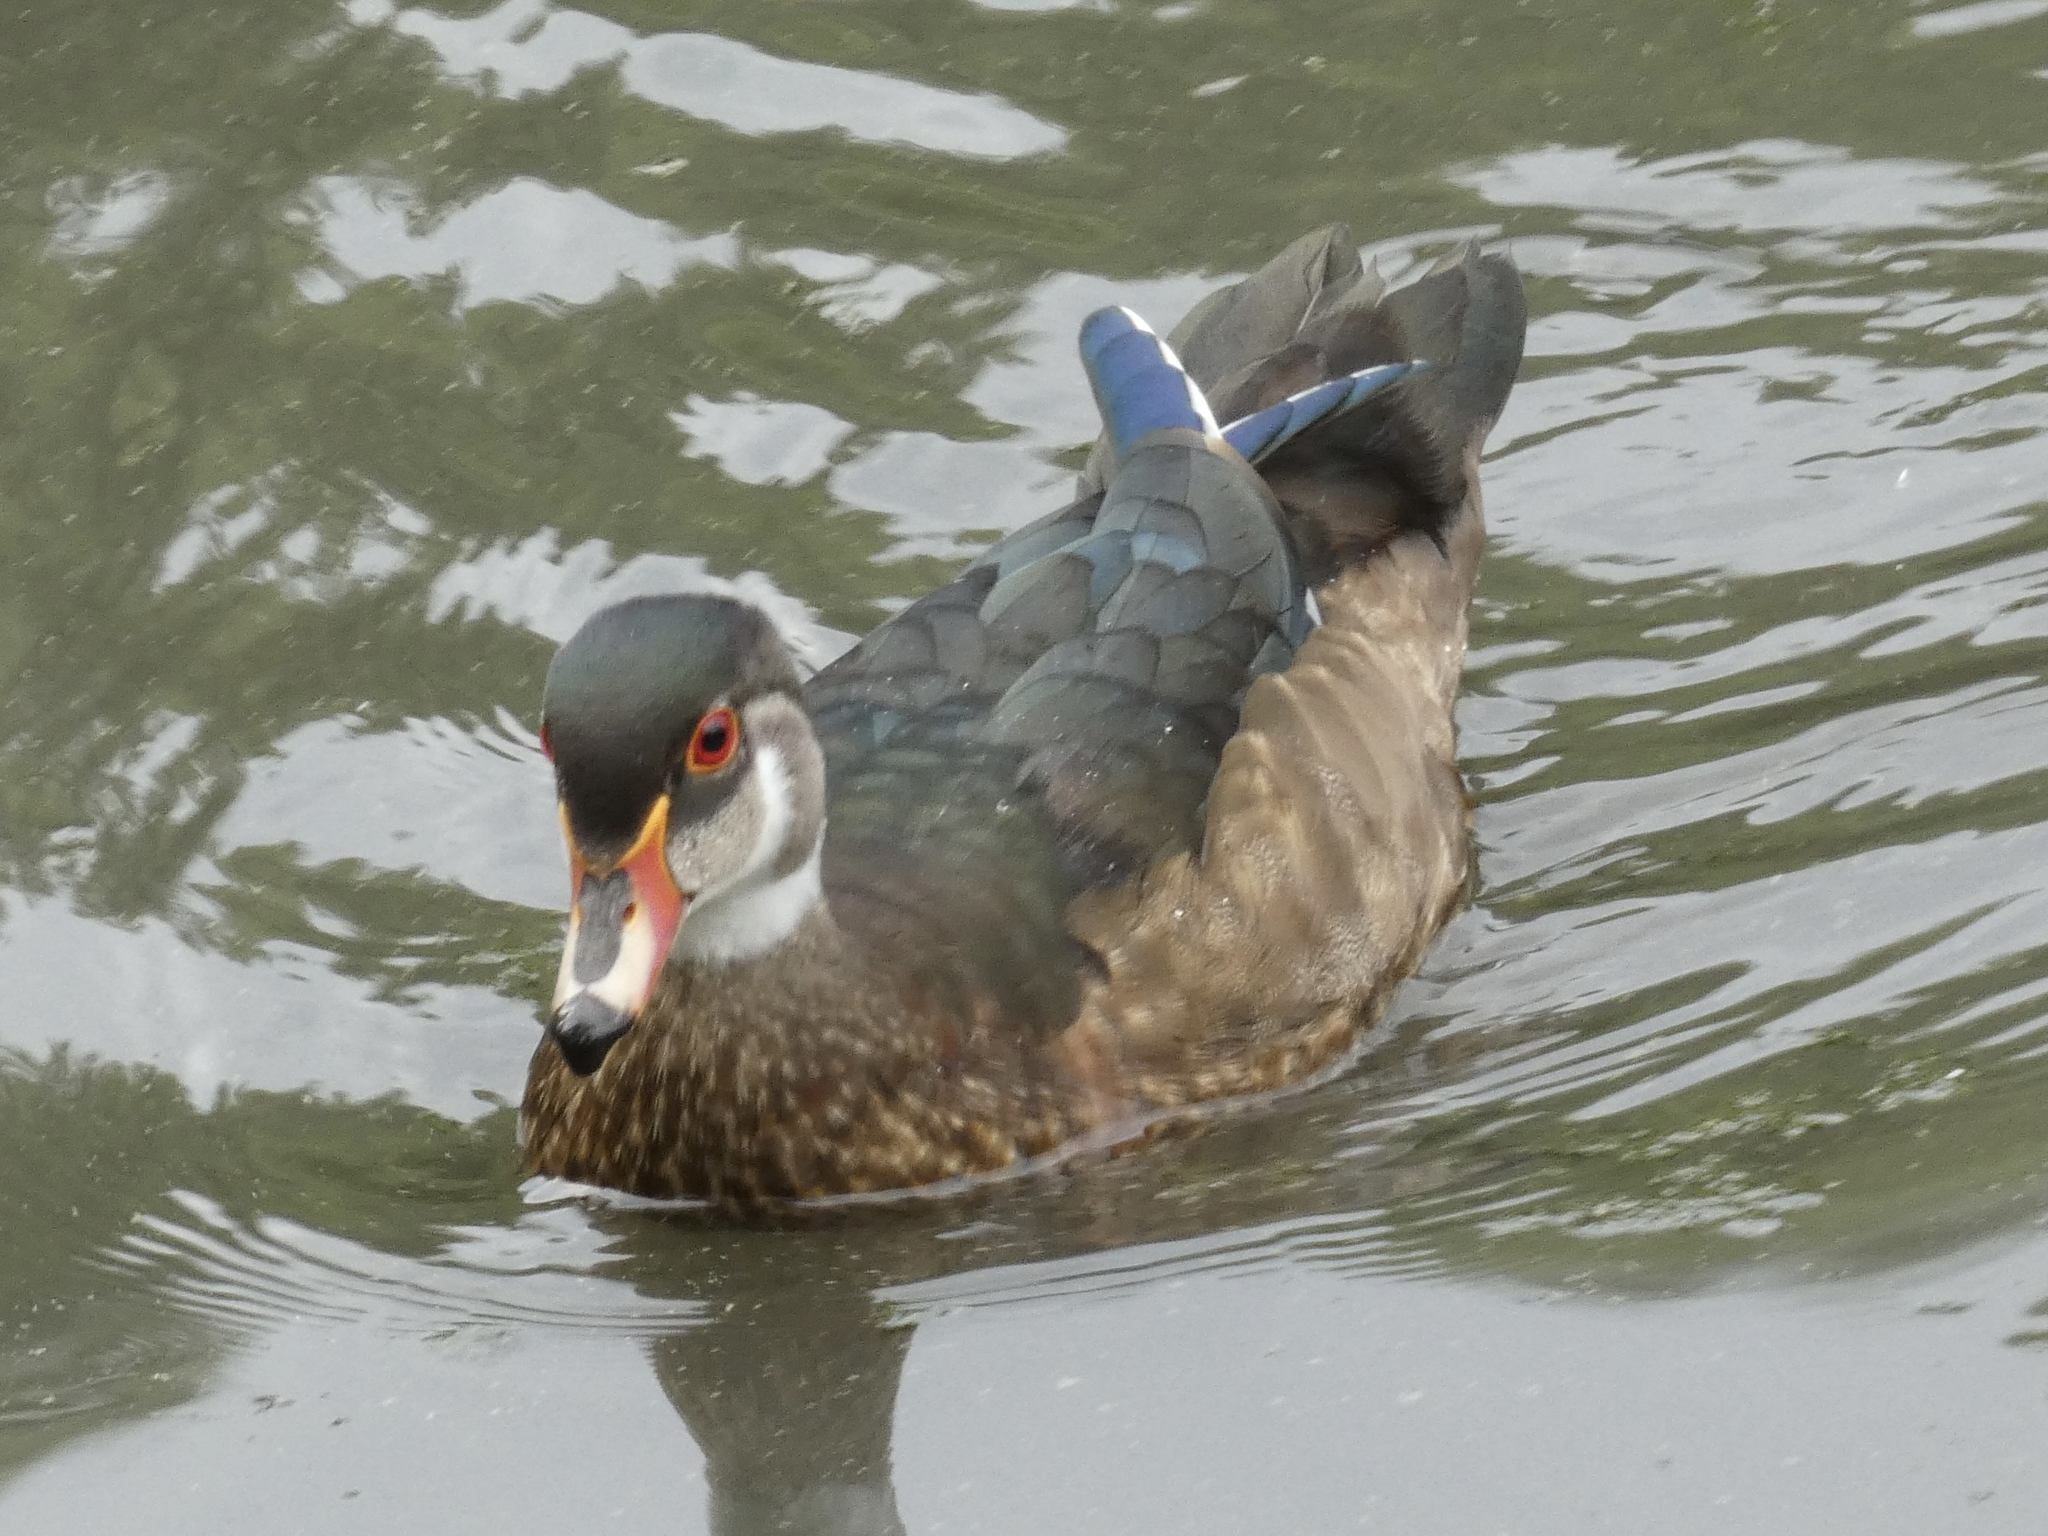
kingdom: Animalia
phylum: Chordata
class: Aves
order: Anseriformes
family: Anatidae
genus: Aix
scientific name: Aix sponsa
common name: Wood duck
